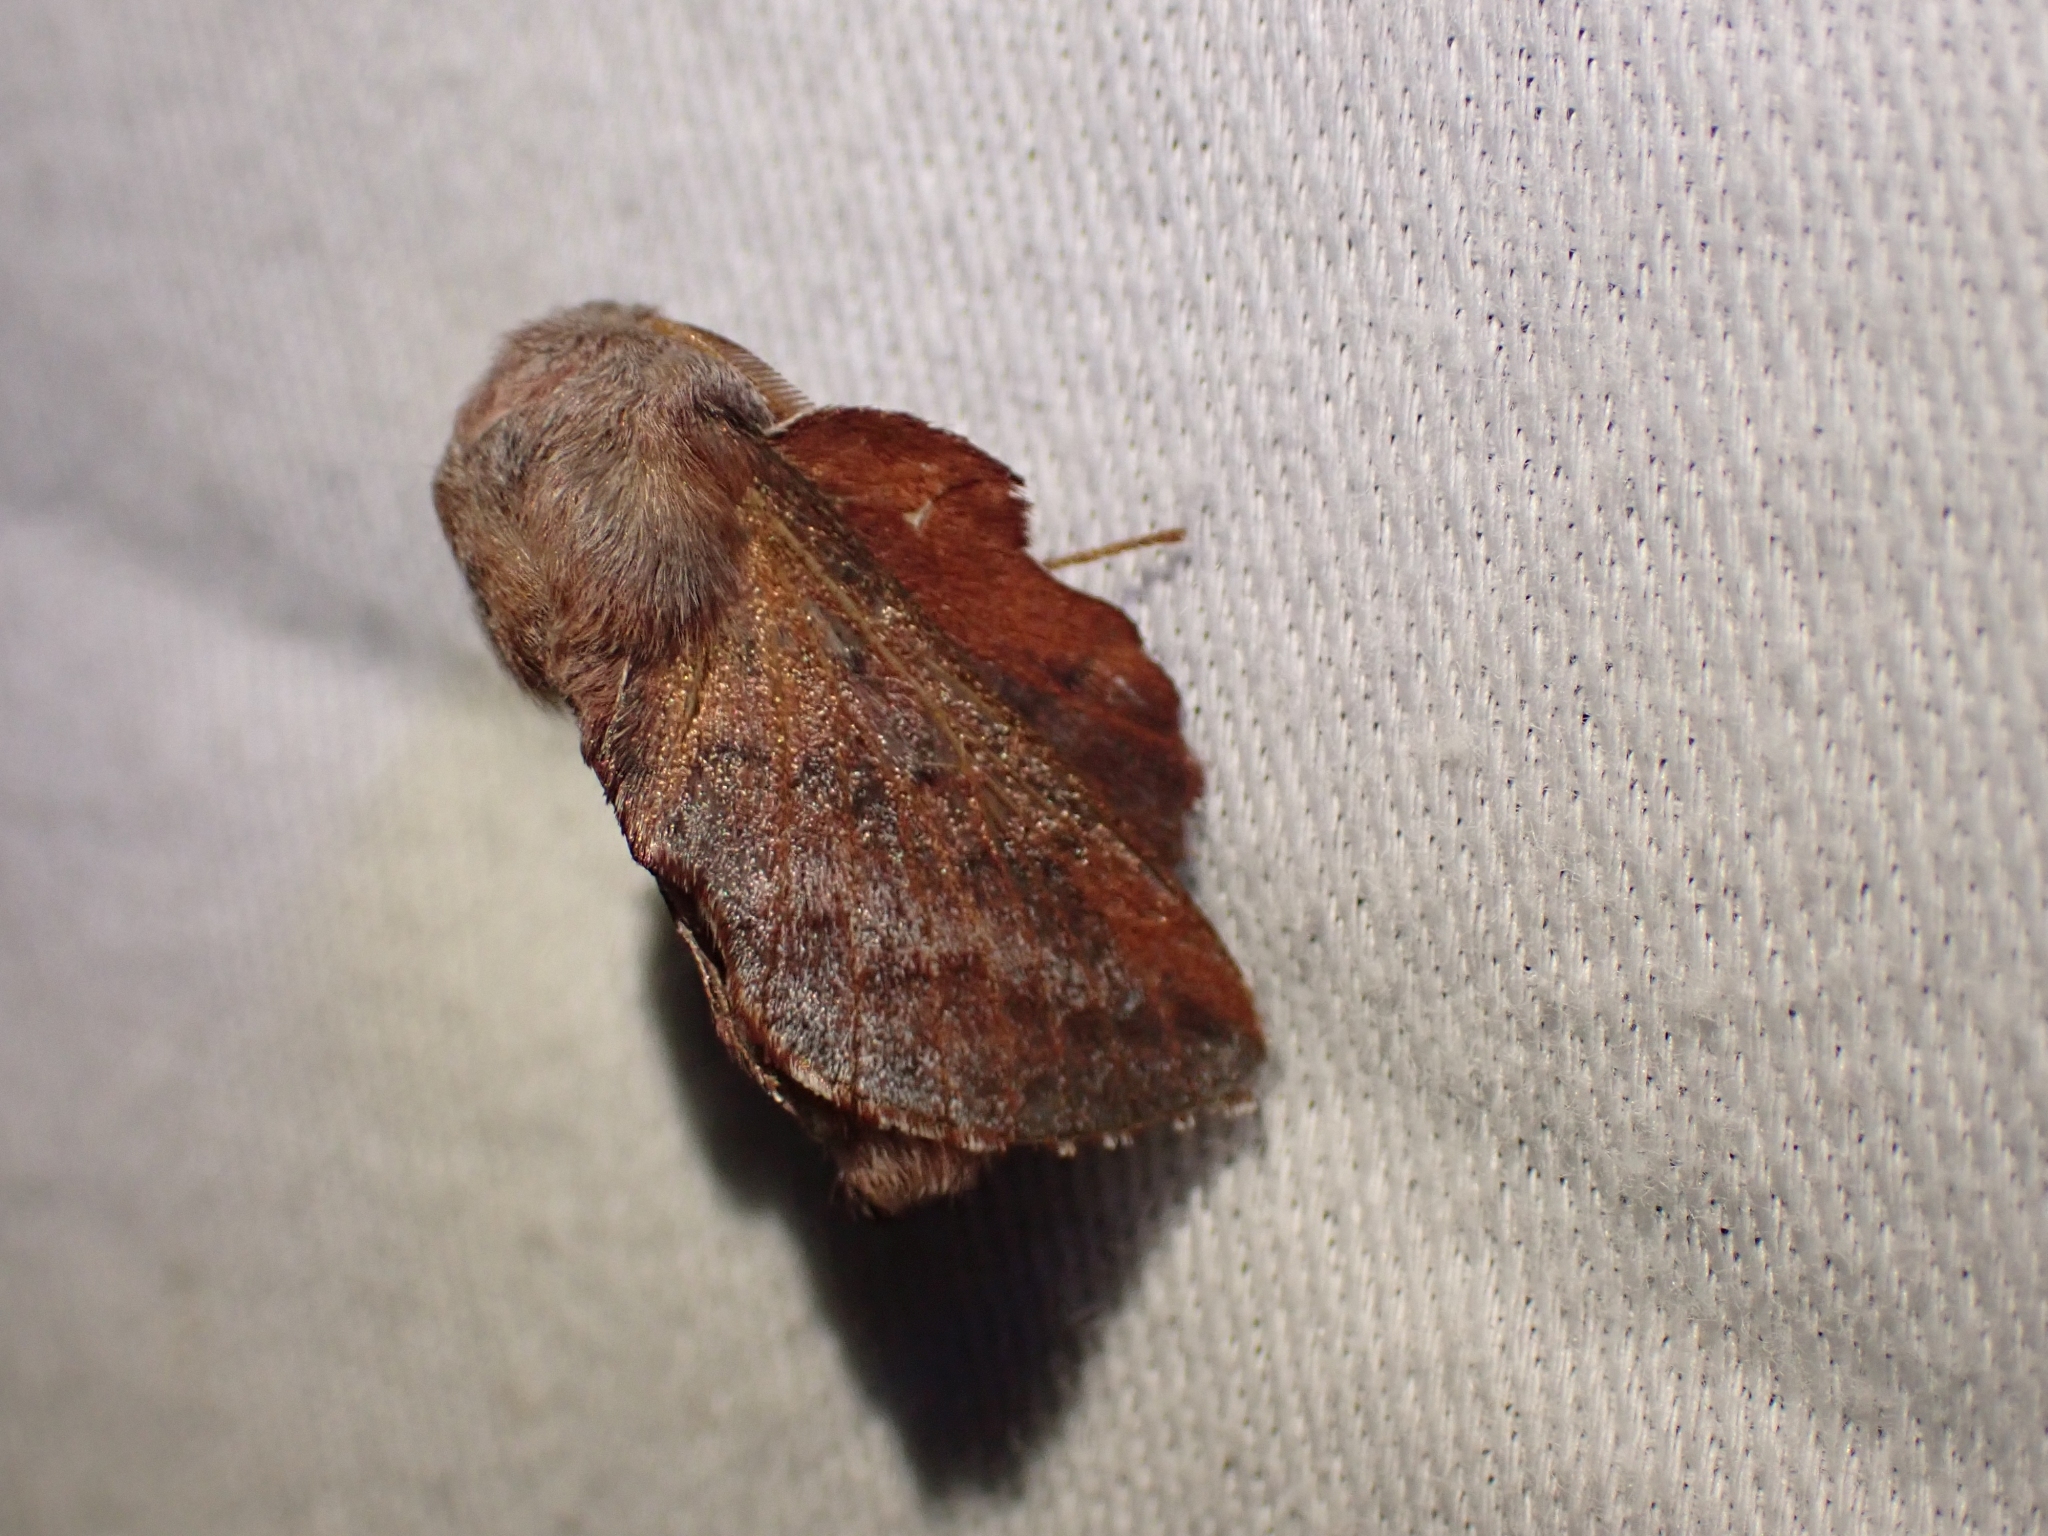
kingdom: Animalia
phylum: Arthropoda
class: Insecta
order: Lepidoptera
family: Lasiocampidae
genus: Phyllodesma
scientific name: Phyllodesma americana
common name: American lappet moth
